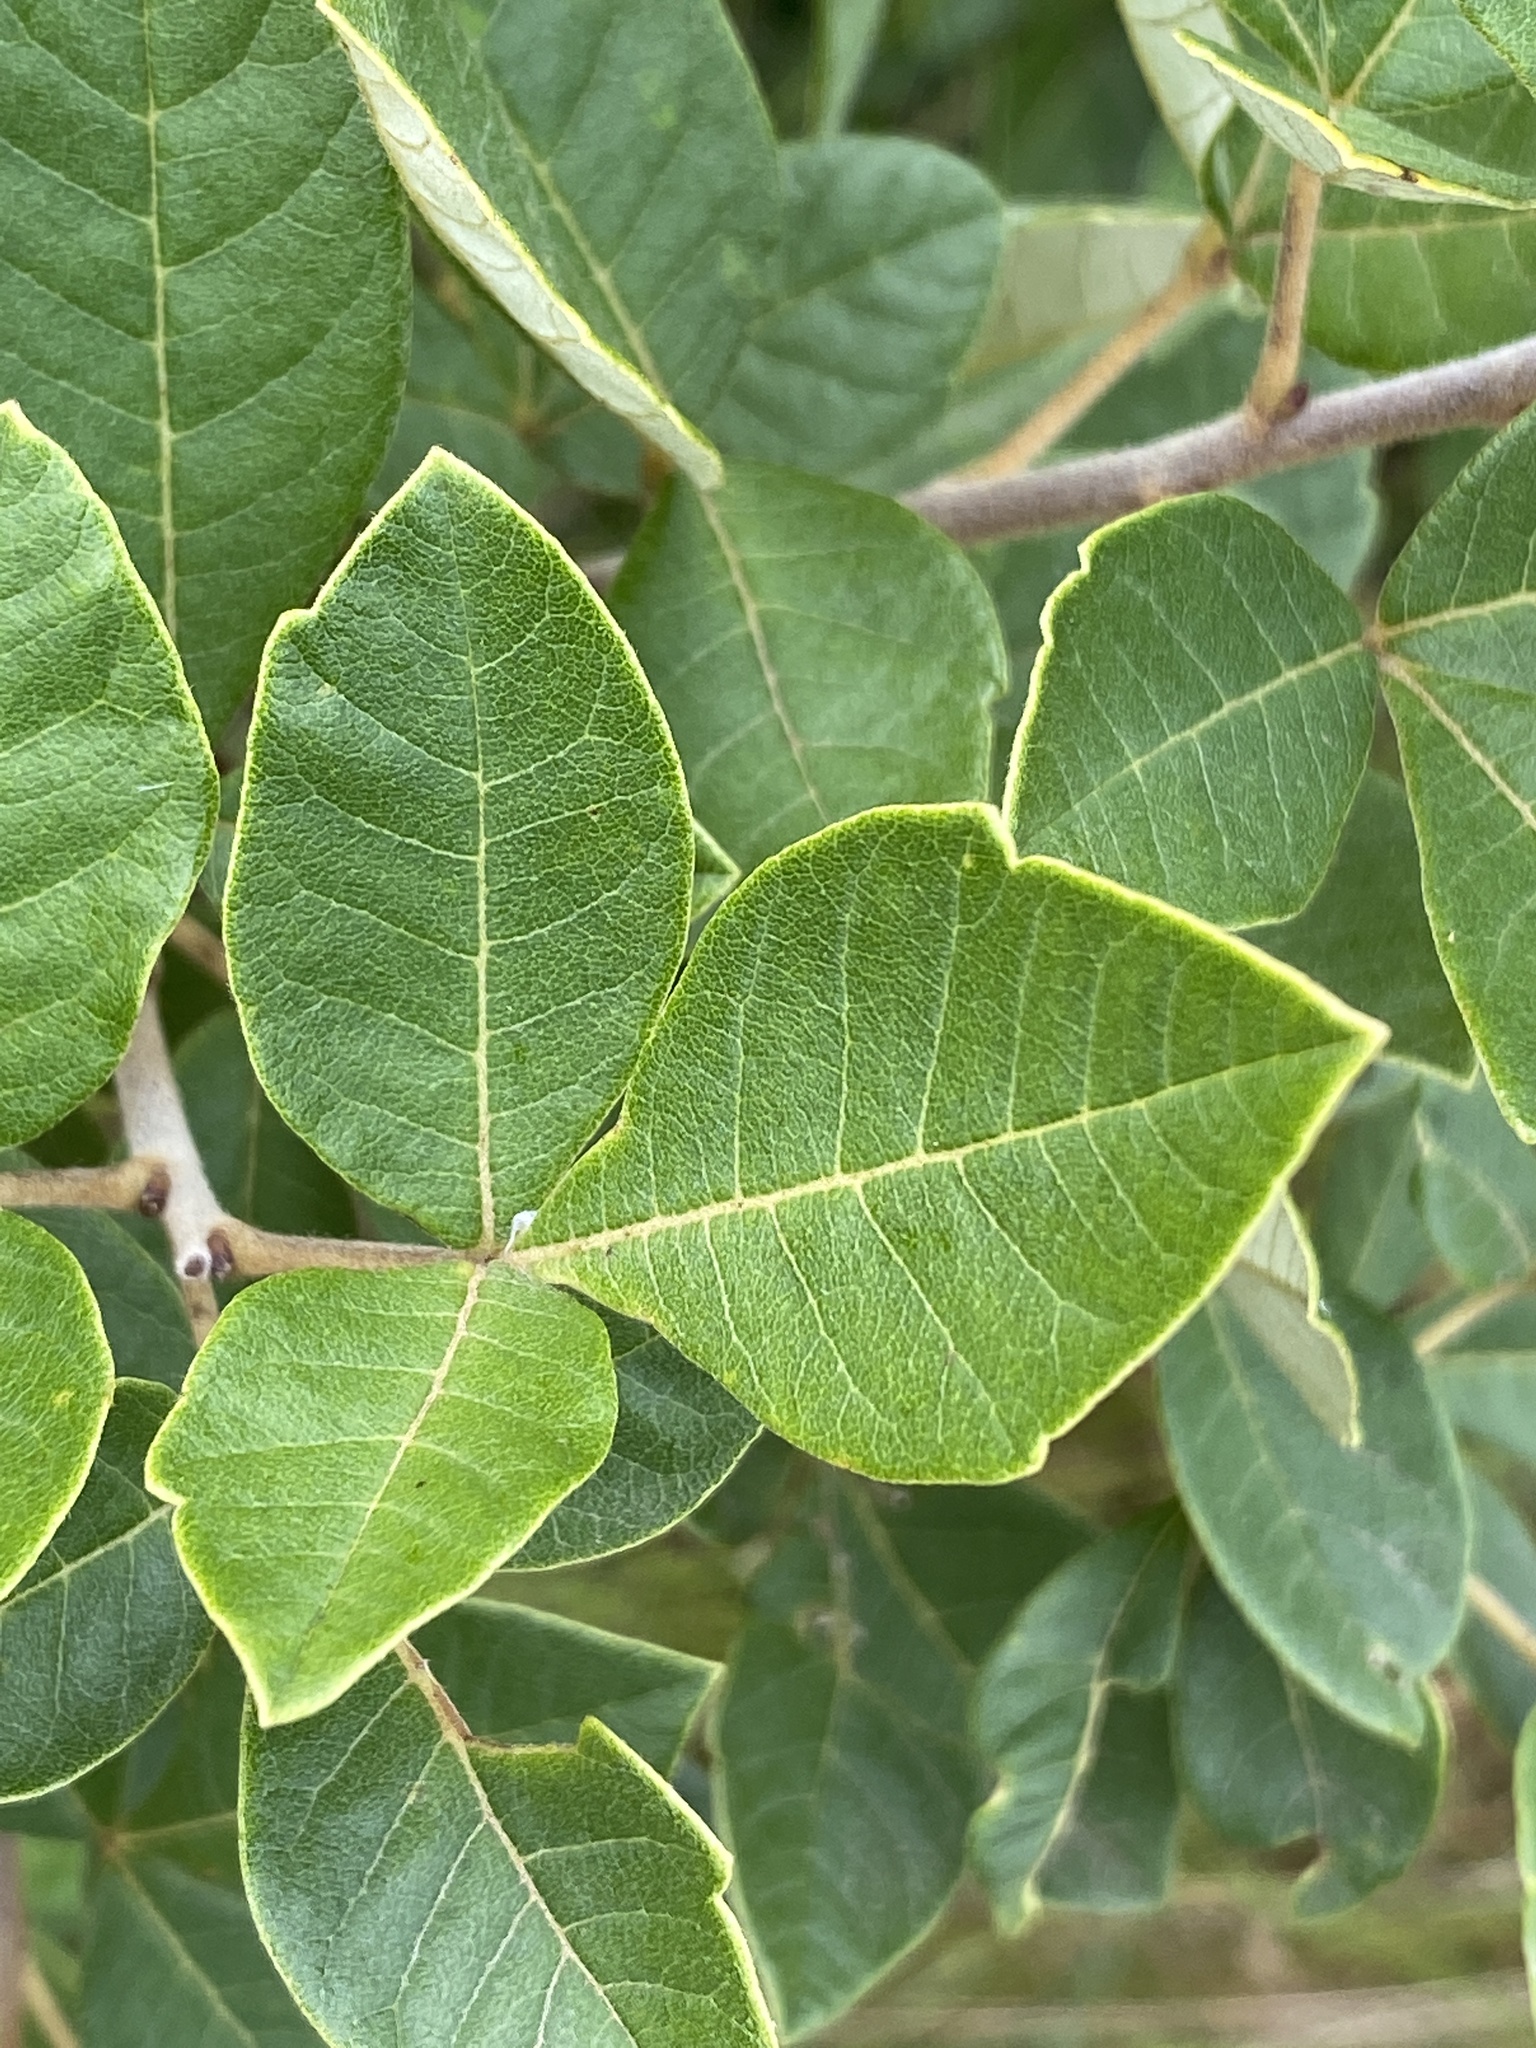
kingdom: Plantae
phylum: Tracheophyta
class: Magnoliopsida
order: Sapindales
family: Anacardiaceae
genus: Searsia
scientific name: Searsia tomentosa
